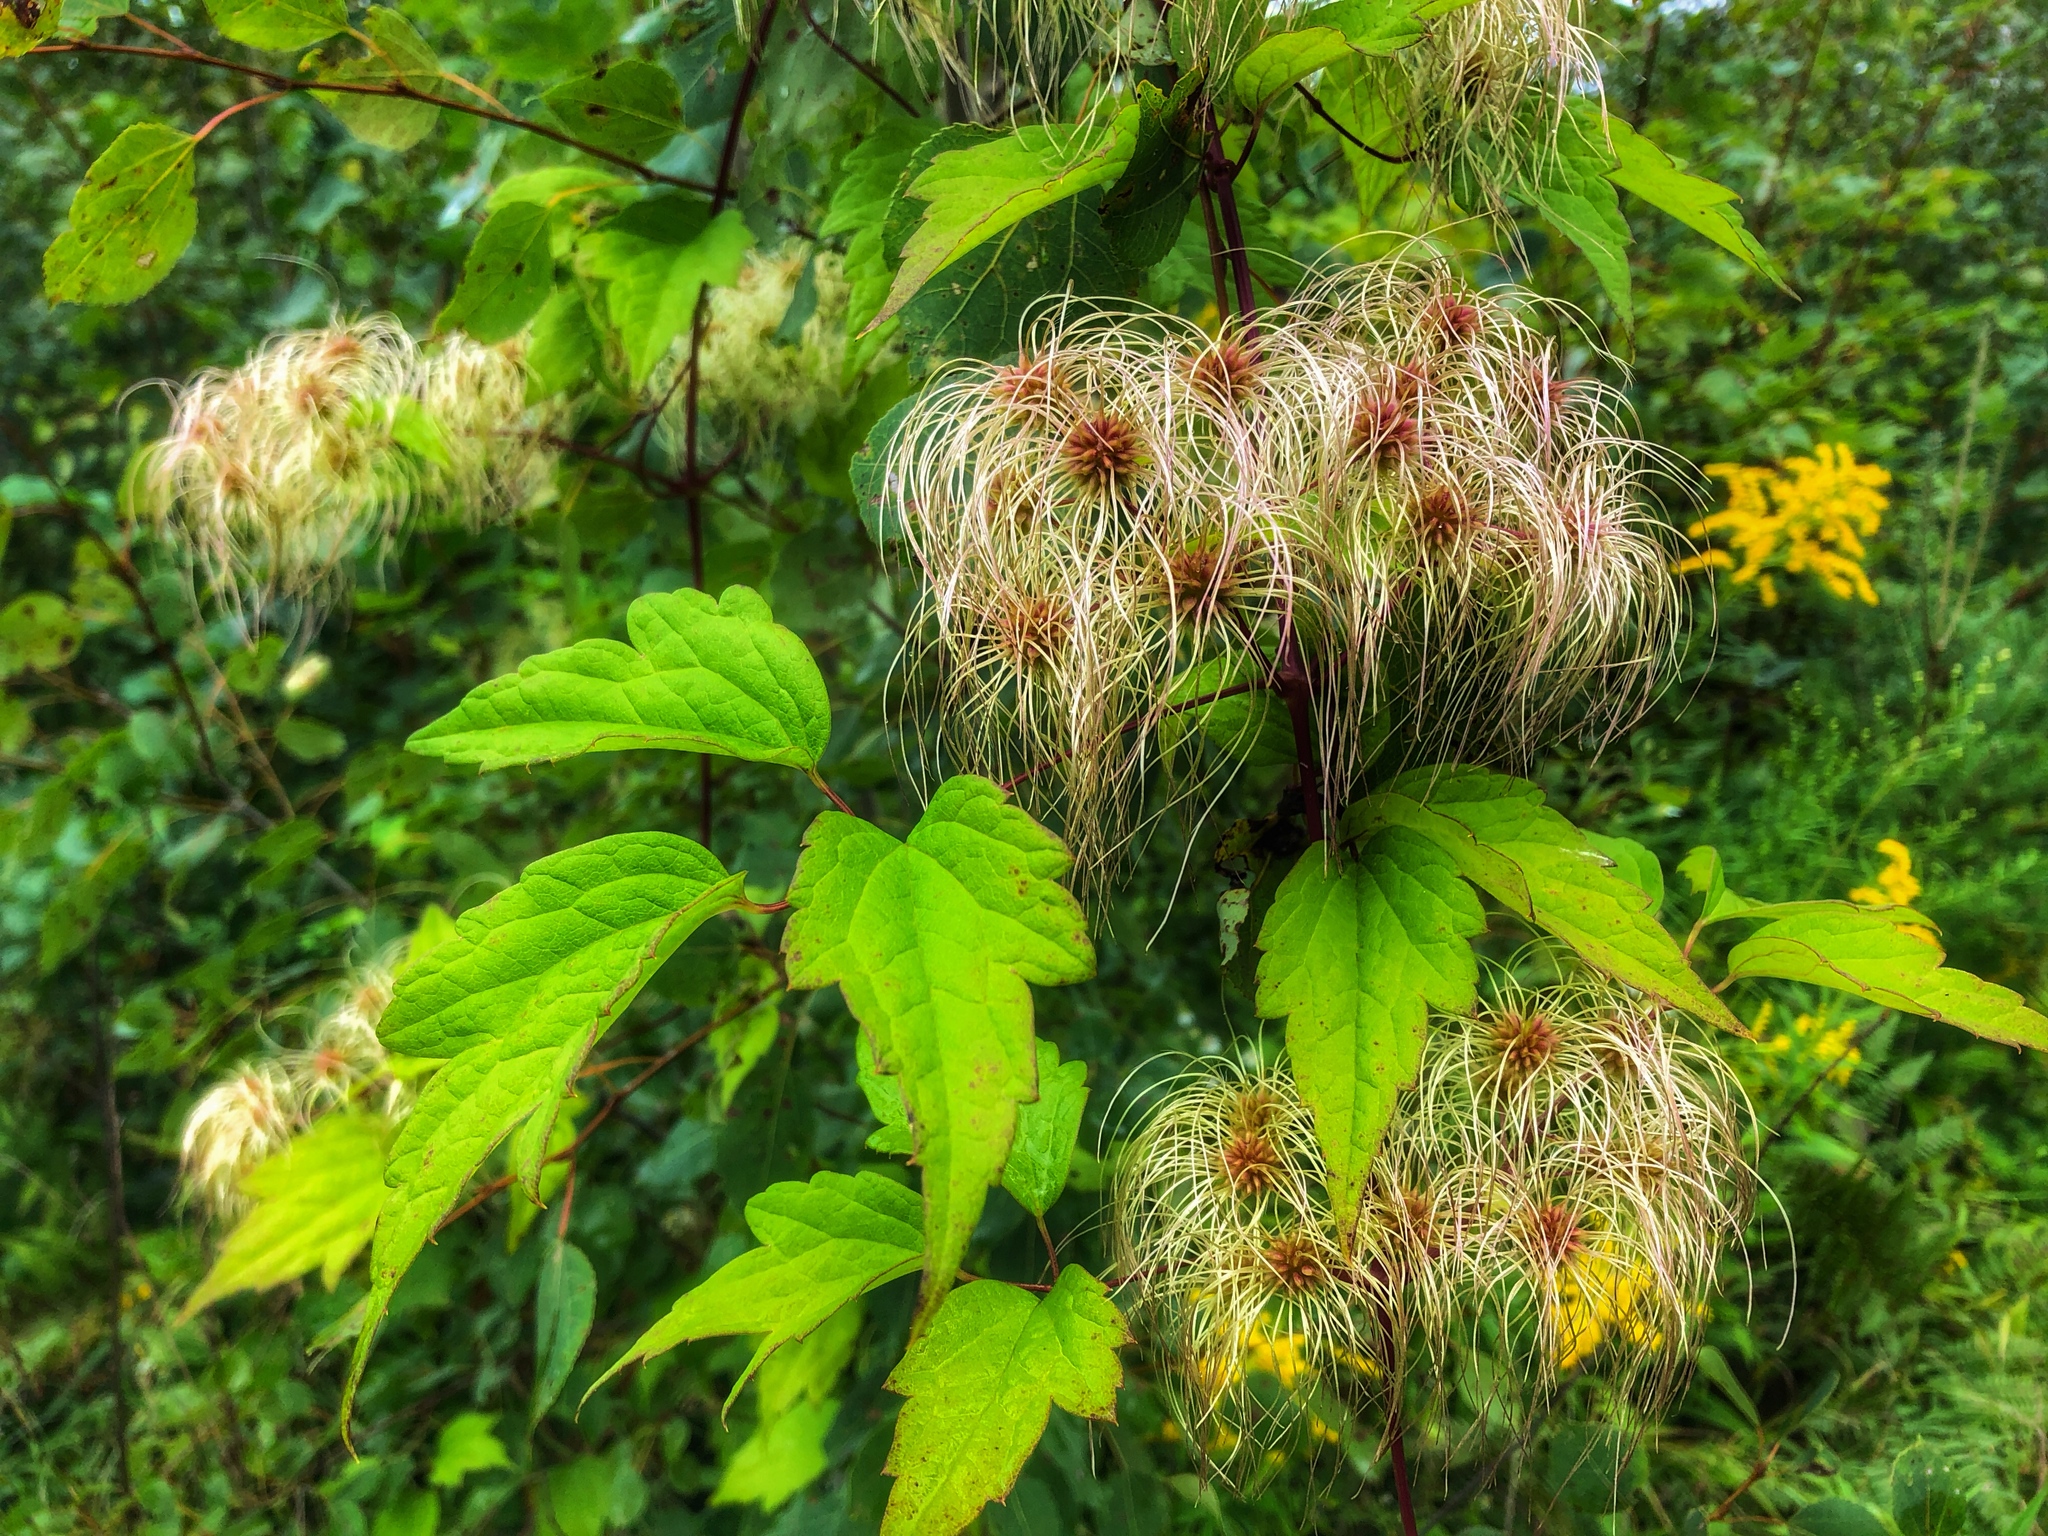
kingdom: Plantae
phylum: Tracheophyta
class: Magnoliopsida
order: Ranunculales
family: Ranunculaceae
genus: Clematis
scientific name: Clematis virginiana
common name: Virgin's-bower
